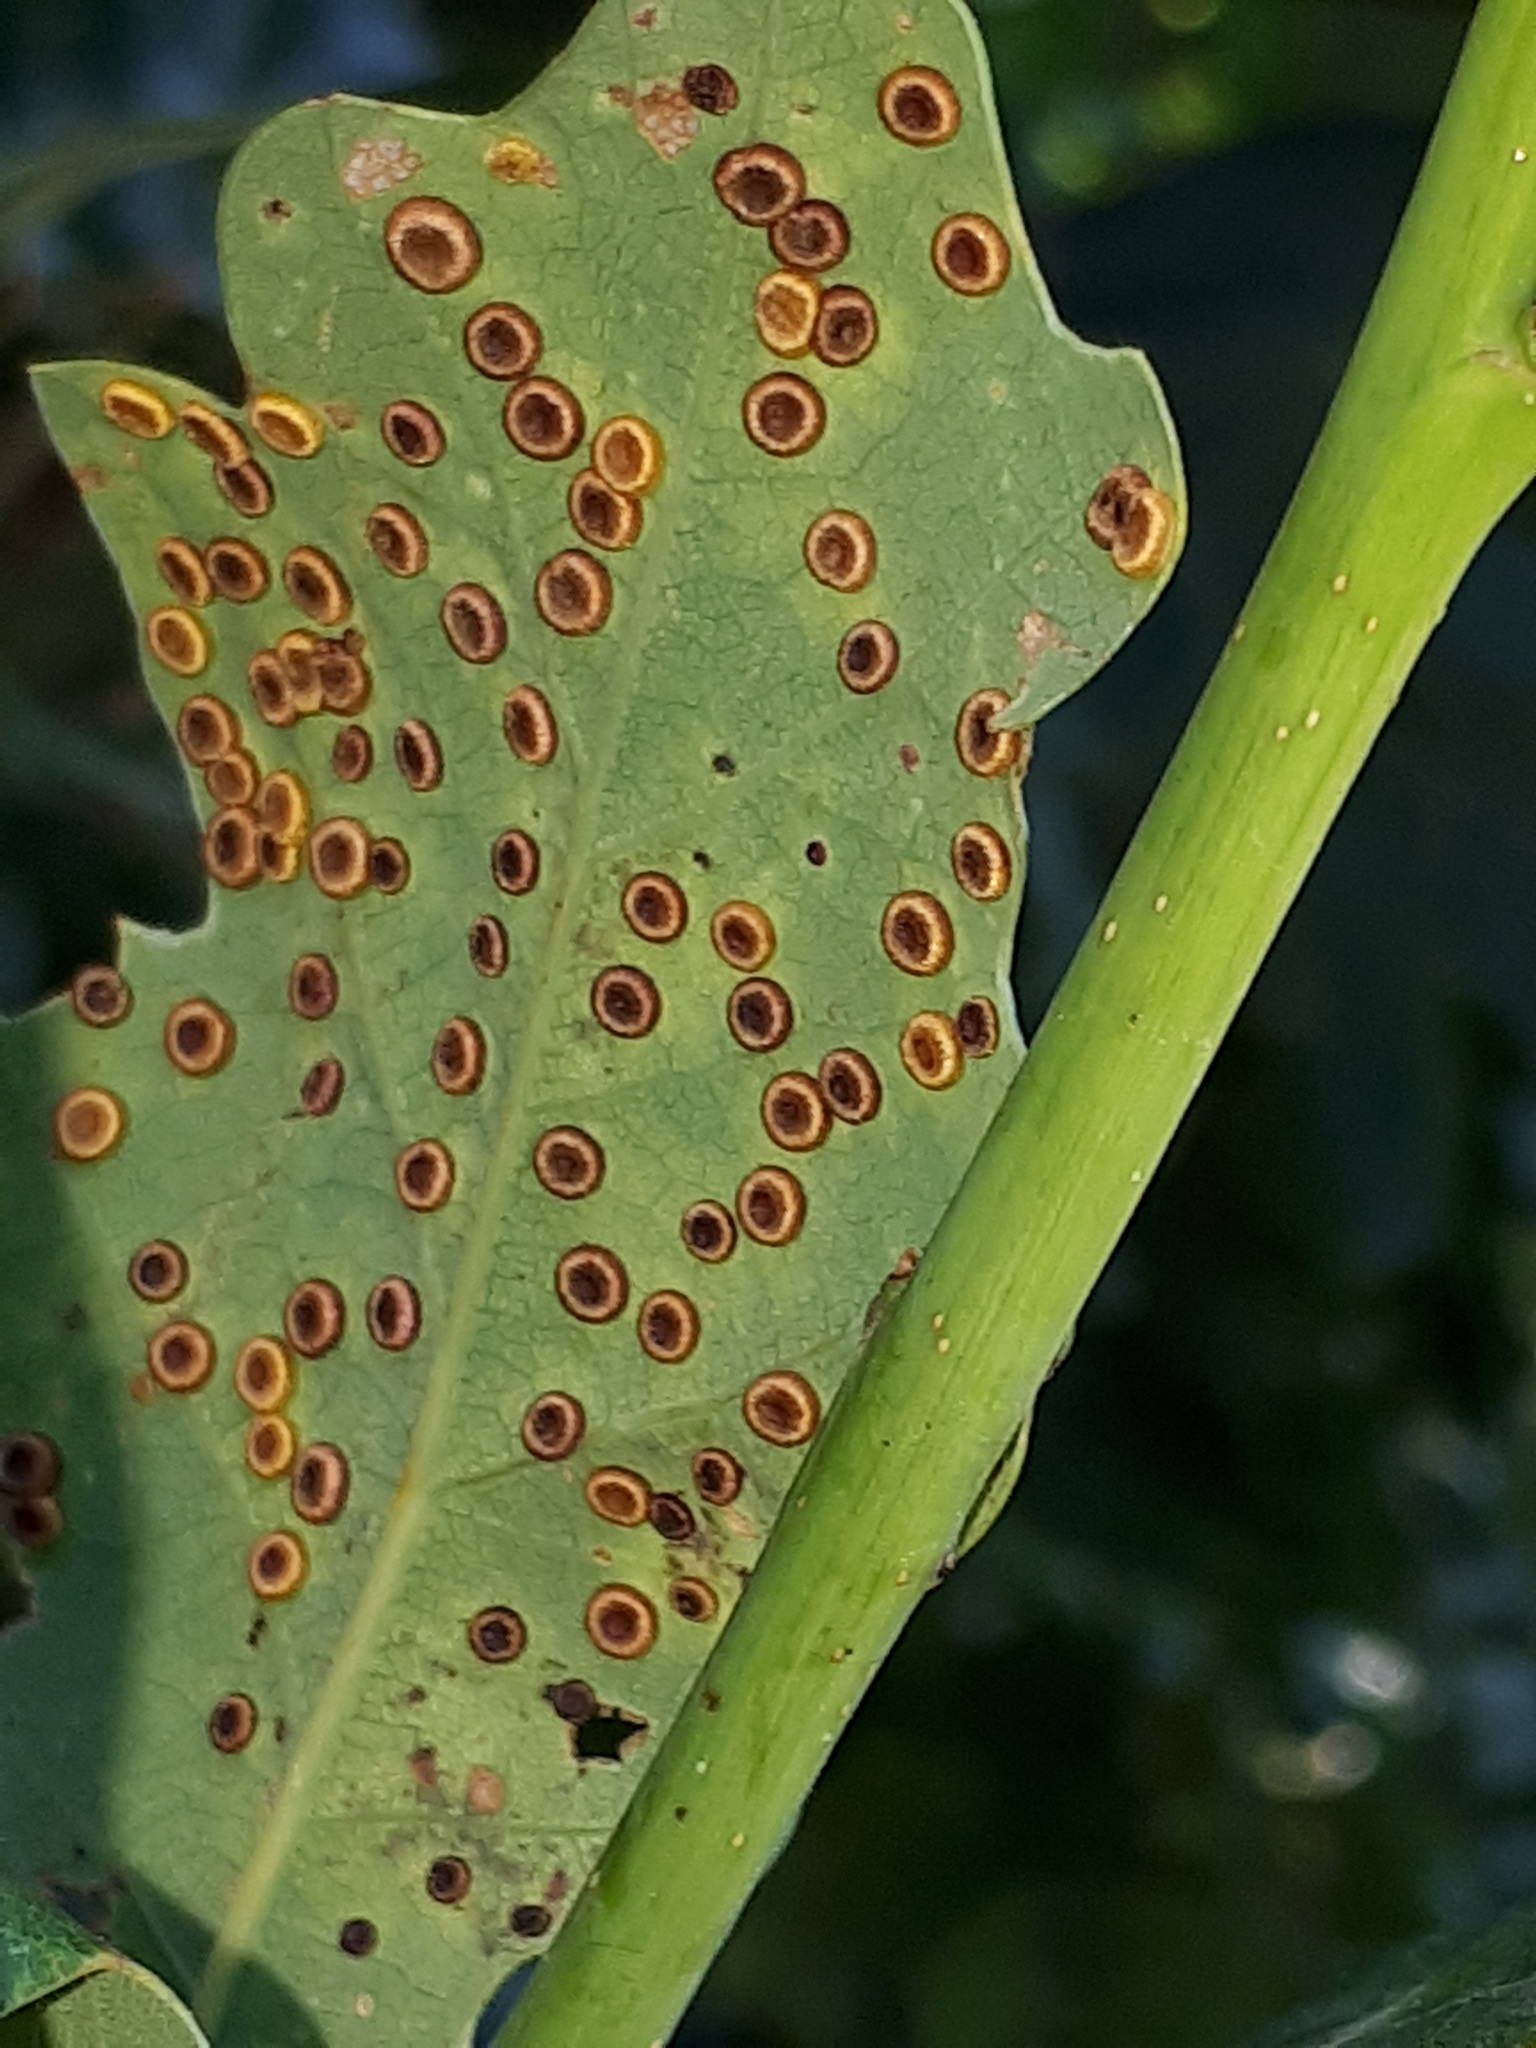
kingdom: Animalia
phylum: Arthropoda
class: Insecta
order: Hymenoptera
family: Cynipidae
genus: Neuroterus
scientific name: Neuroterus numismalis
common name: Silk-button spangle gall
